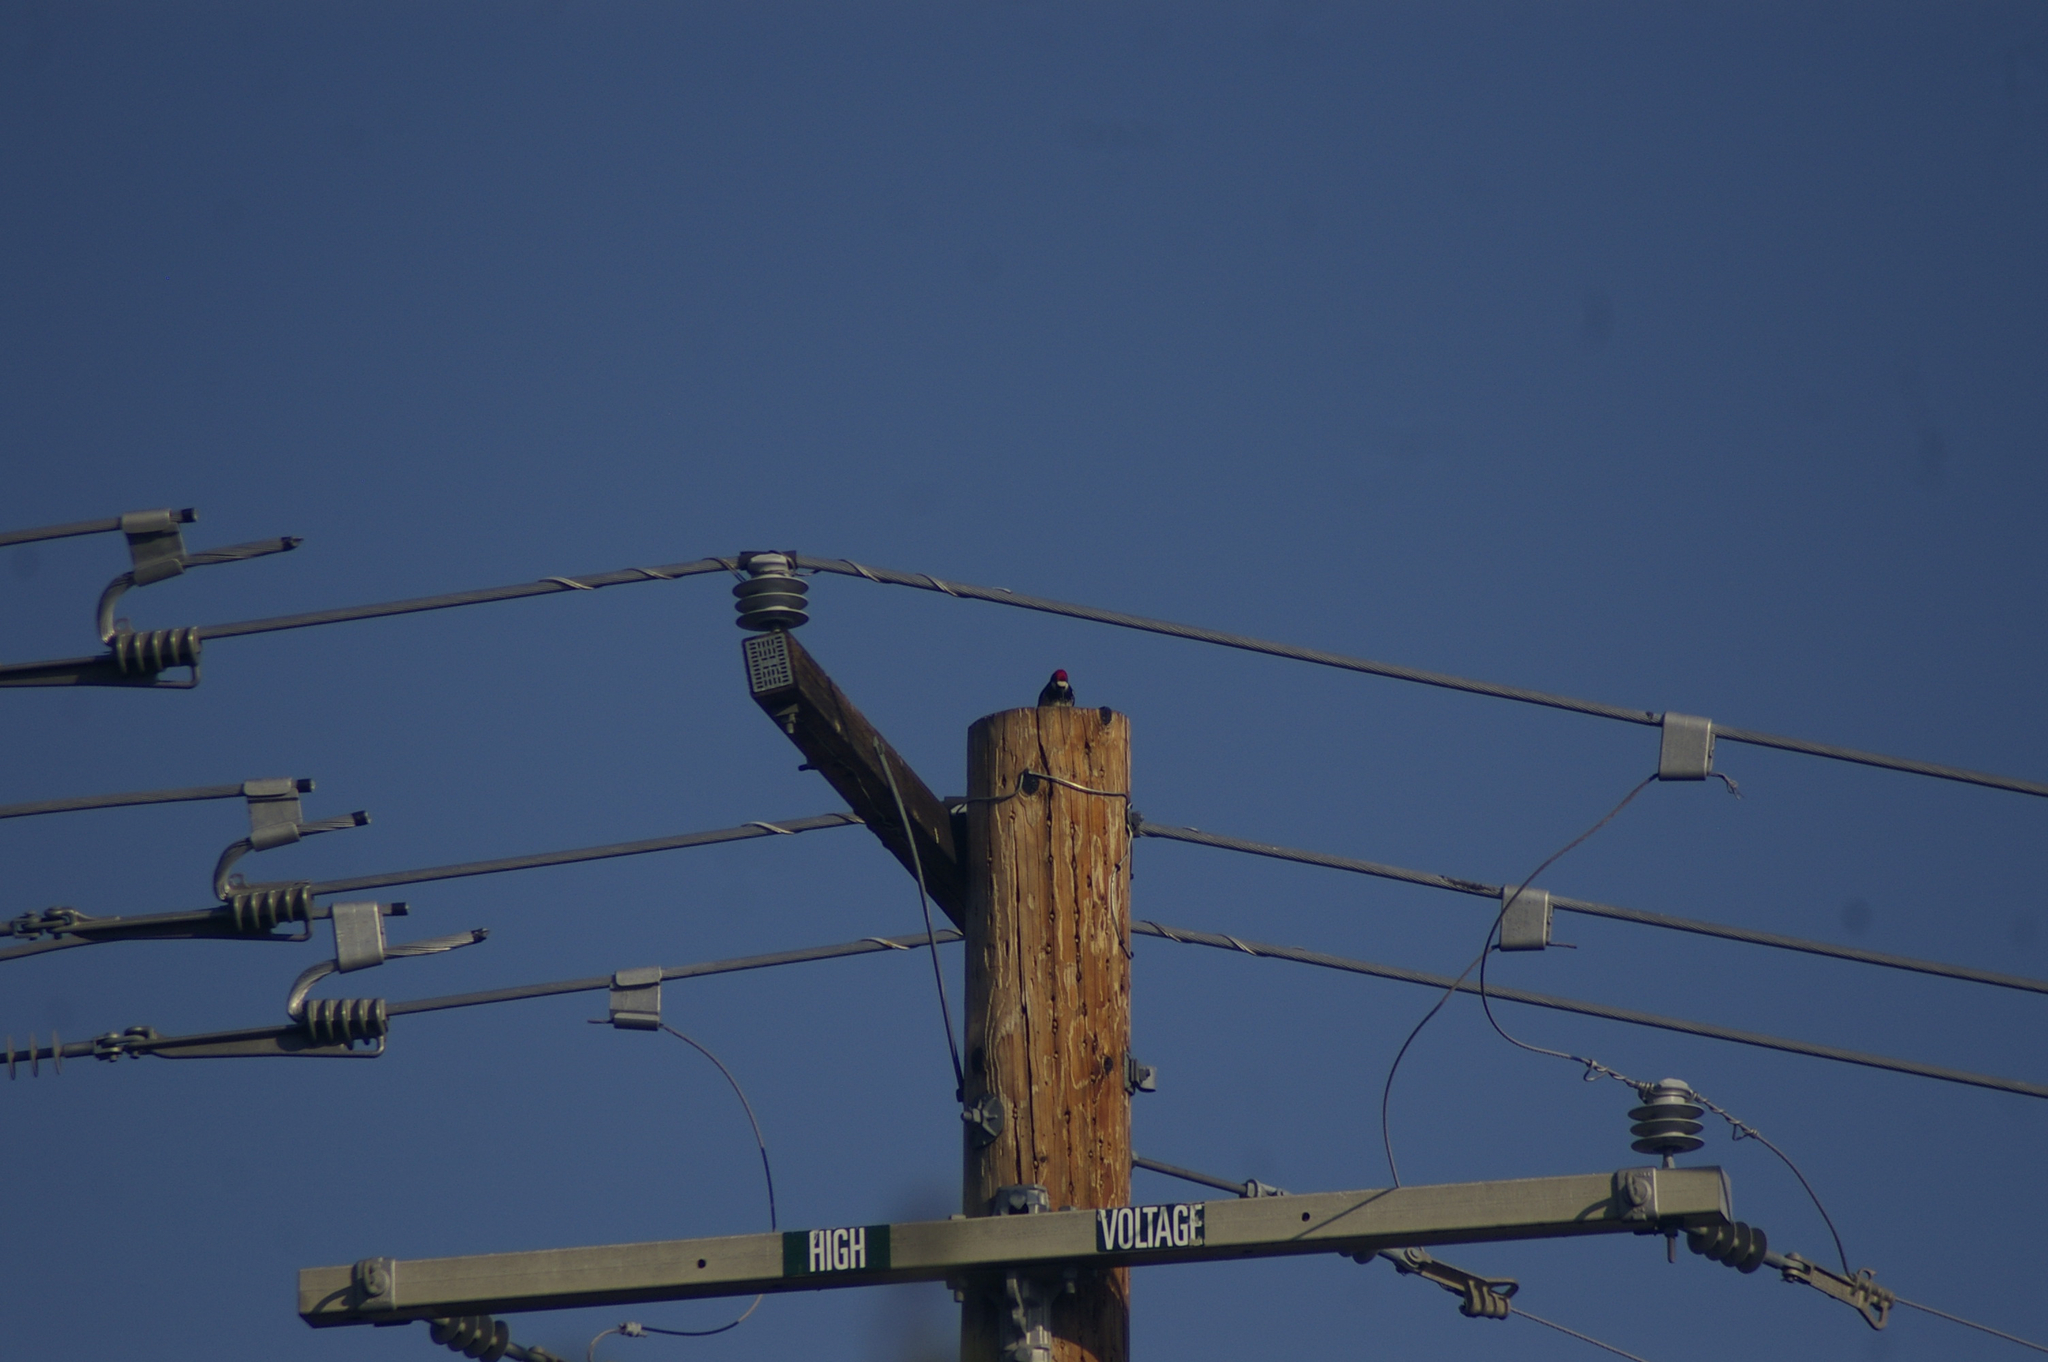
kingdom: Animalia
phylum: Chordata
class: Aves
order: Piciformes
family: Picidae
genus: Melanerpes
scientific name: Melanerpes formicivorus
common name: Acorn woodpecker
